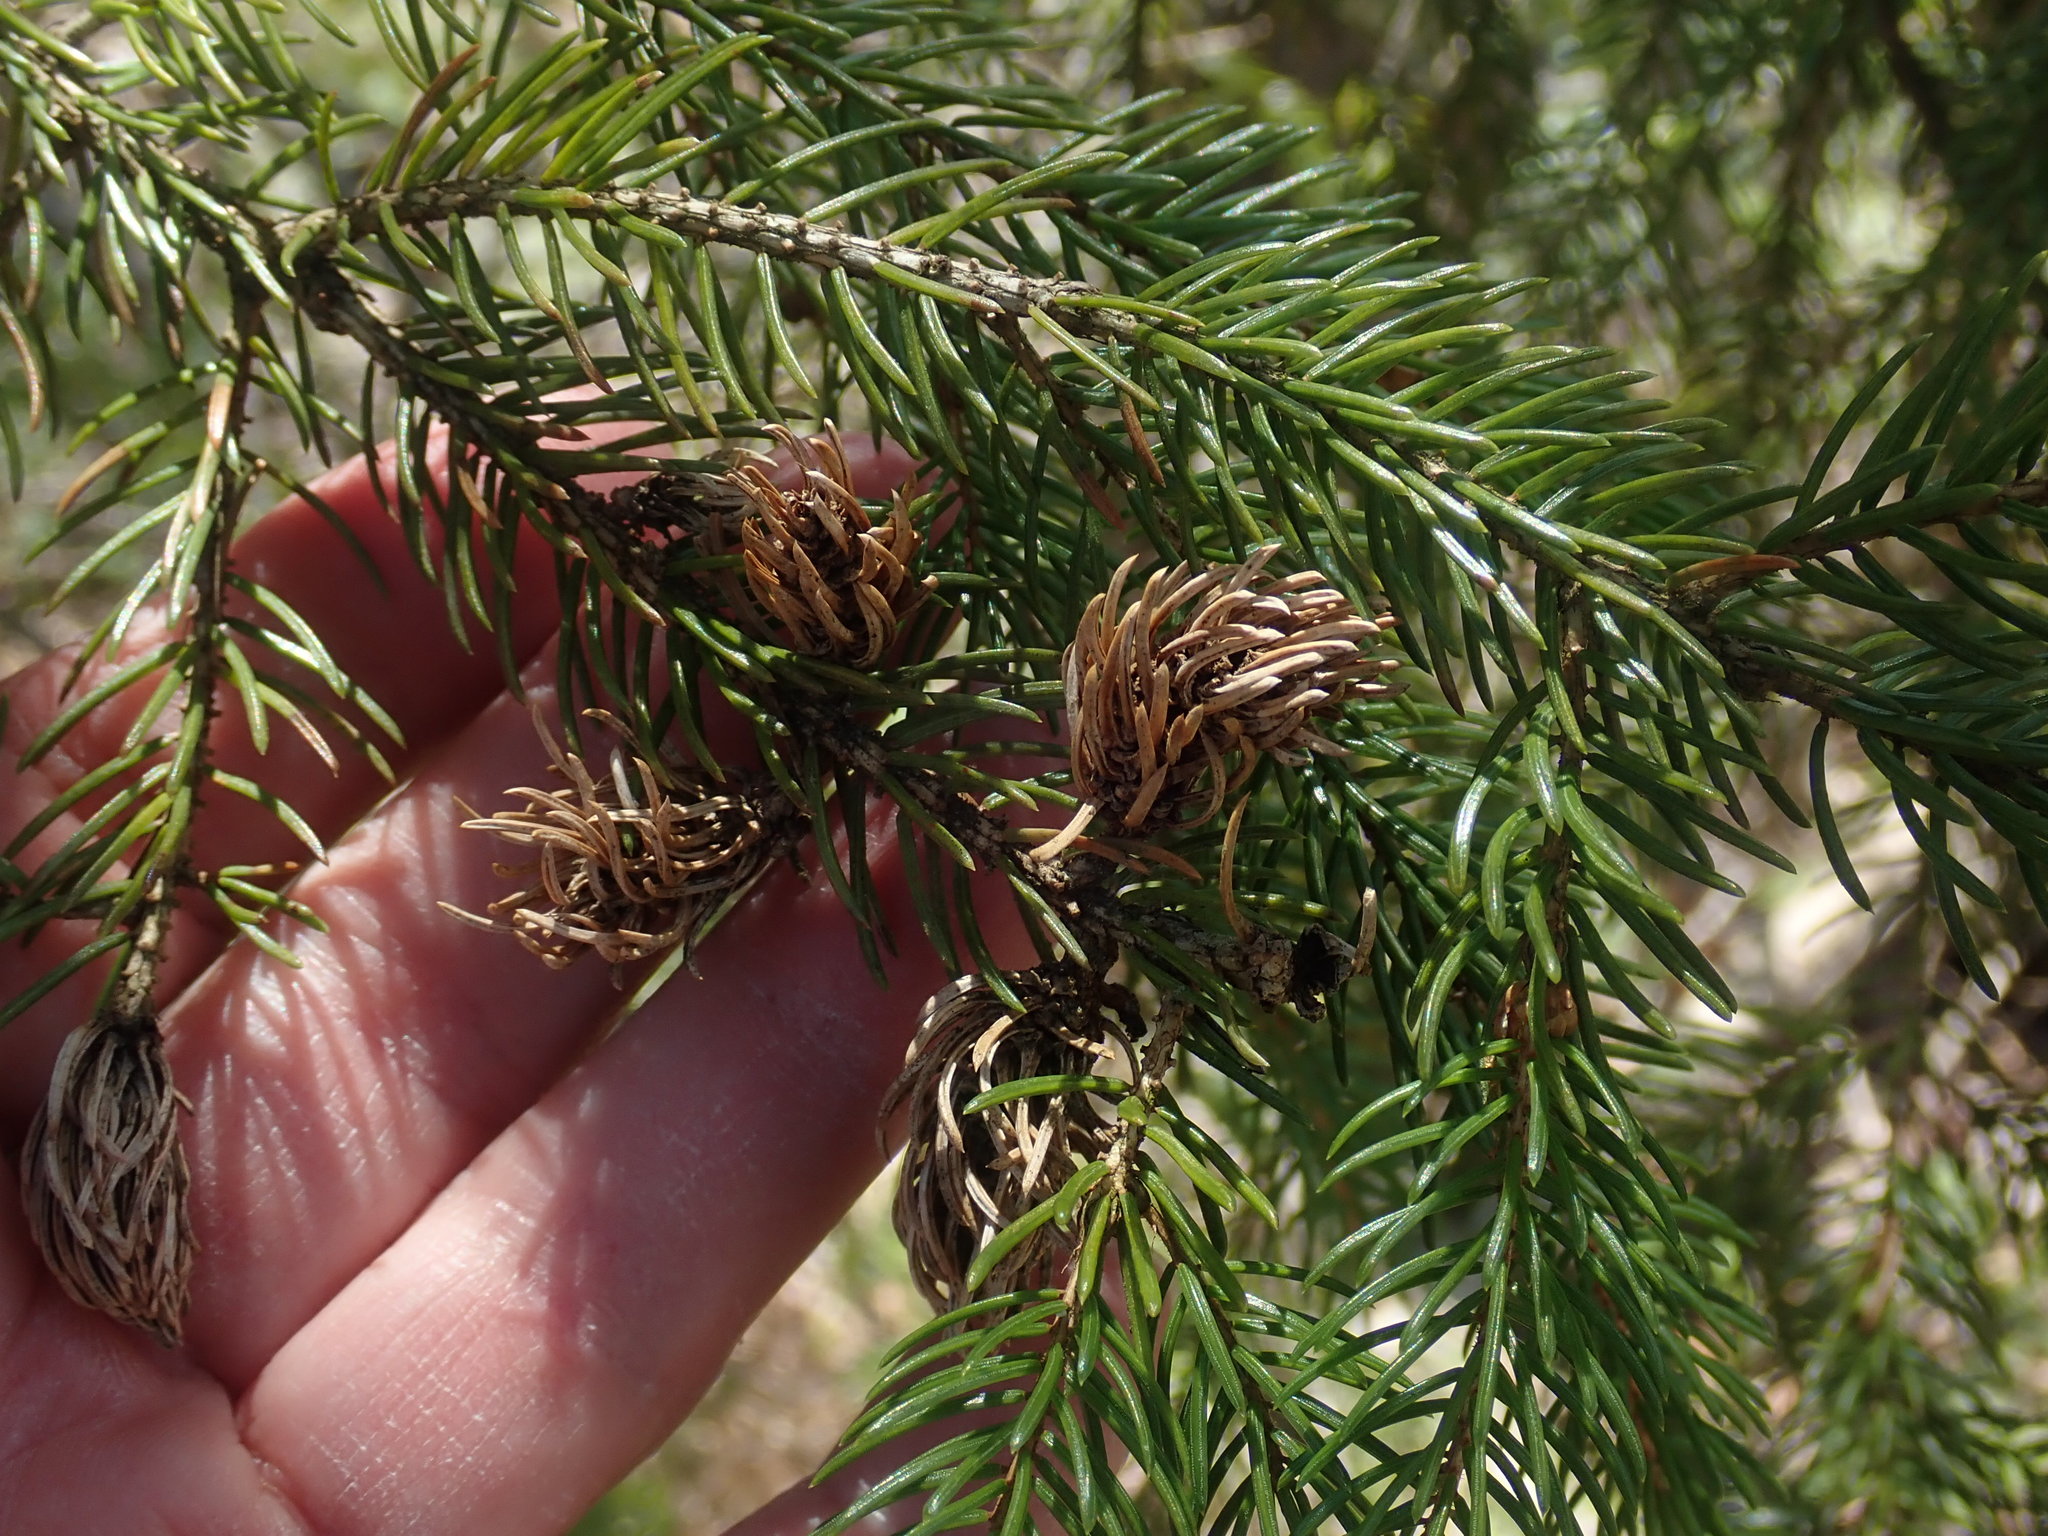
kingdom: Animalia
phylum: Arthropoda
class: Insecta
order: Hemiptera
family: Adelgidae
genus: Adelges
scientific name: Adelges abietis
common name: Eastern spruce gall adelgid
